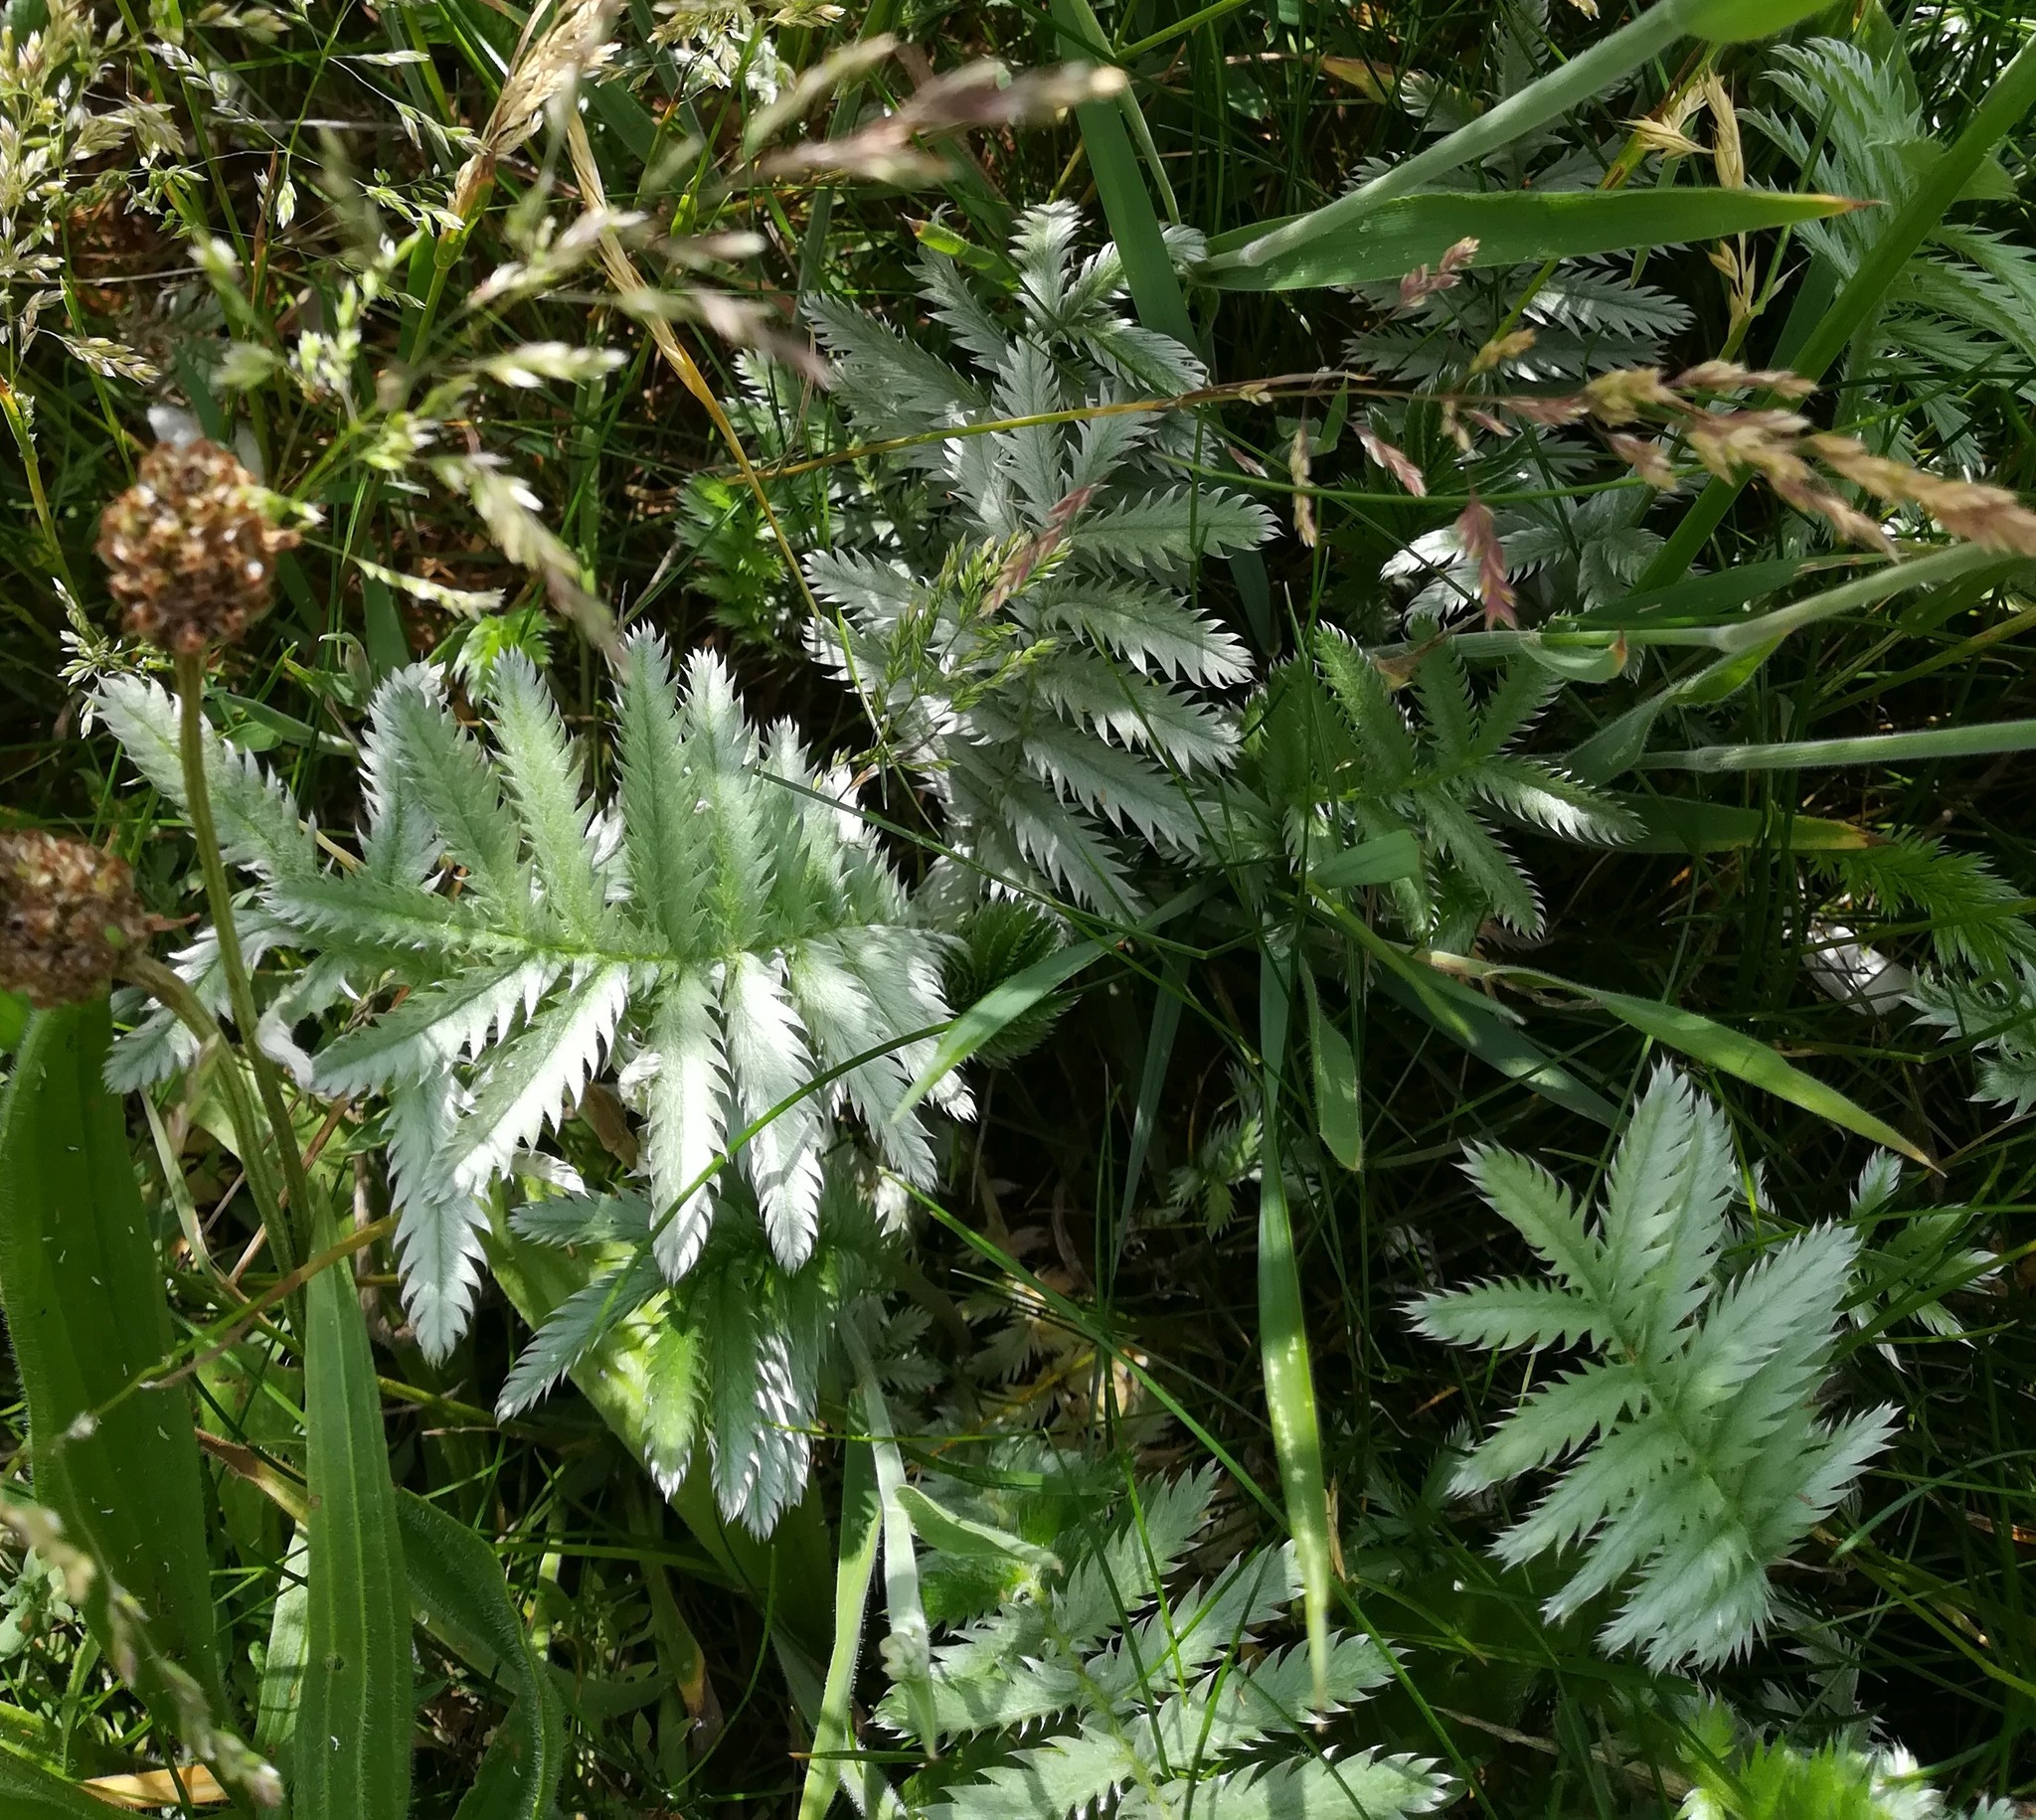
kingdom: Plantae
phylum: Tracheophyta
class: Magnoliopsida
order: Rosales
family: Rosaceae
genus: Argentina
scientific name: Argentina anserina
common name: Common silverweed
